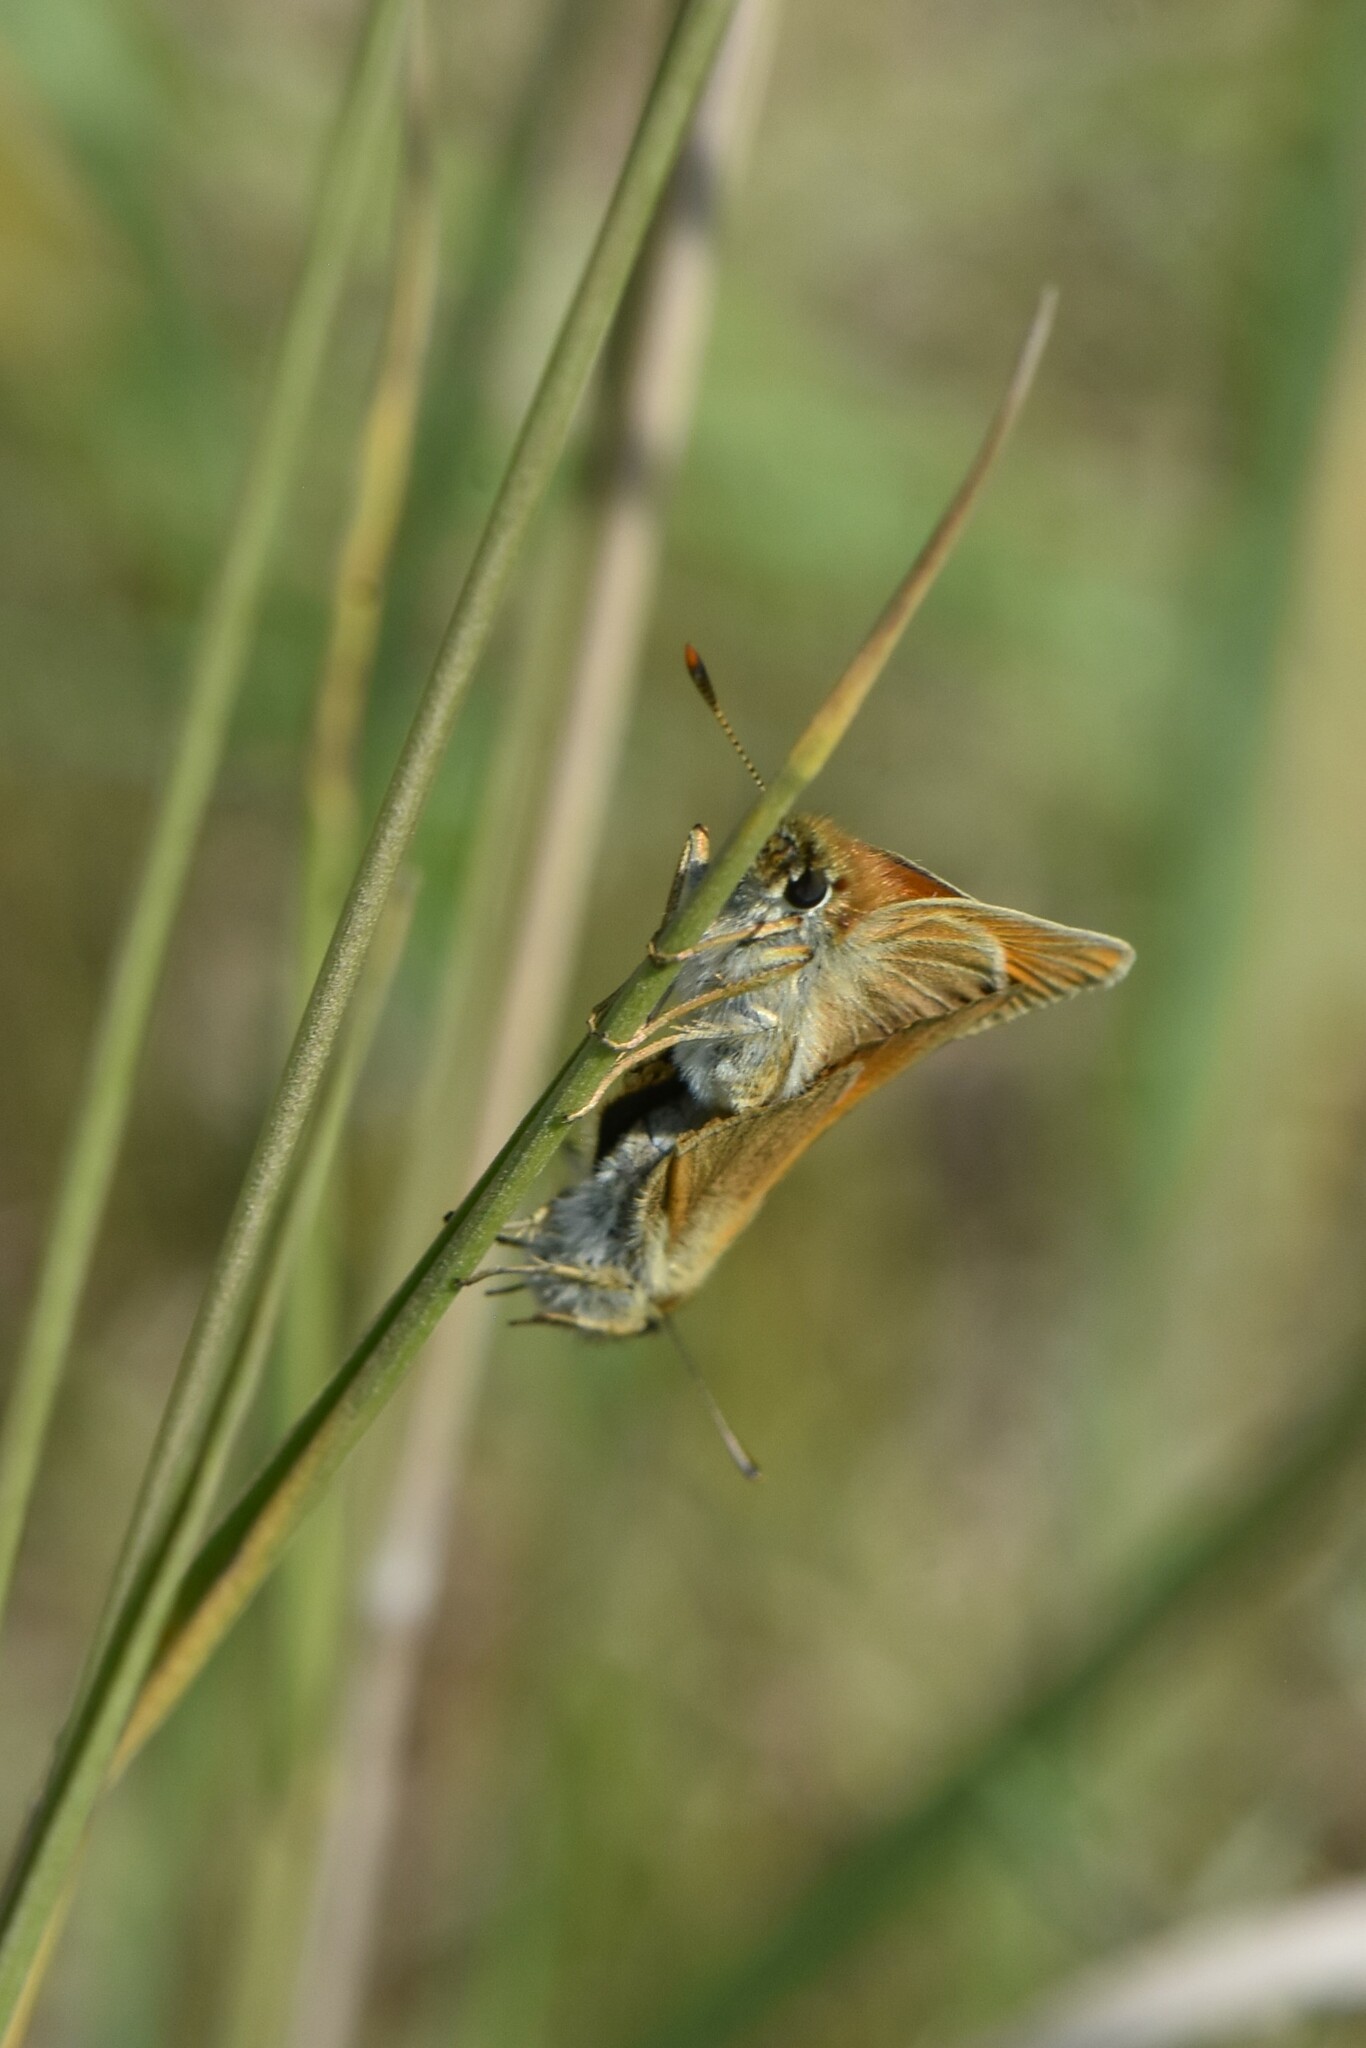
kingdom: Animalia
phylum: Arthropoda
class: Insecta
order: Lepidoptera
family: Hesperiidae
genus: Thymelicus
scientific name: Thymelicus sylvestris
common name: Small skipper
